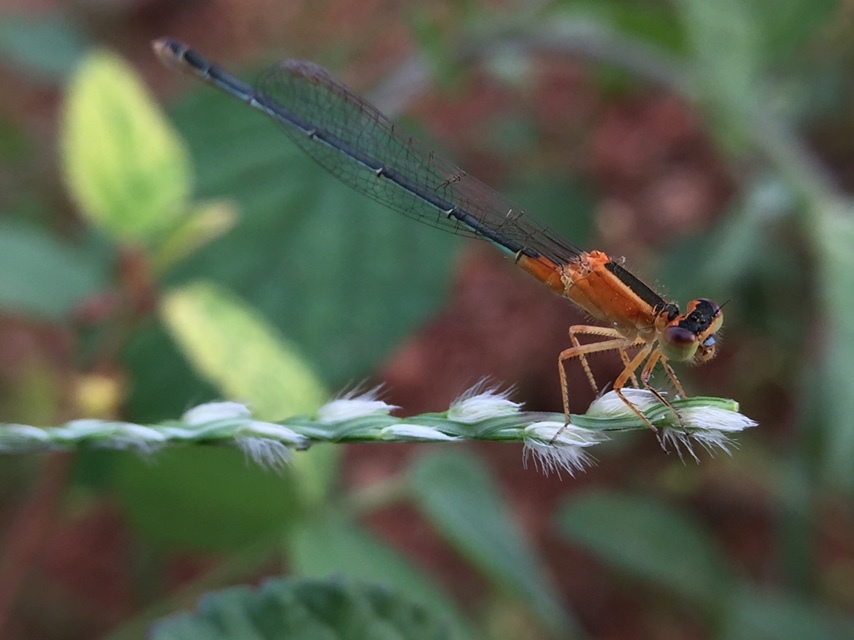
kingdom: Animalia
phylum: Arthropoda
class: Insecta
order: Odonata
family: Coenagrionidae
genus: Ischnura
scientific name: Ischnura senegalensis
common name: Tropical bluetail
